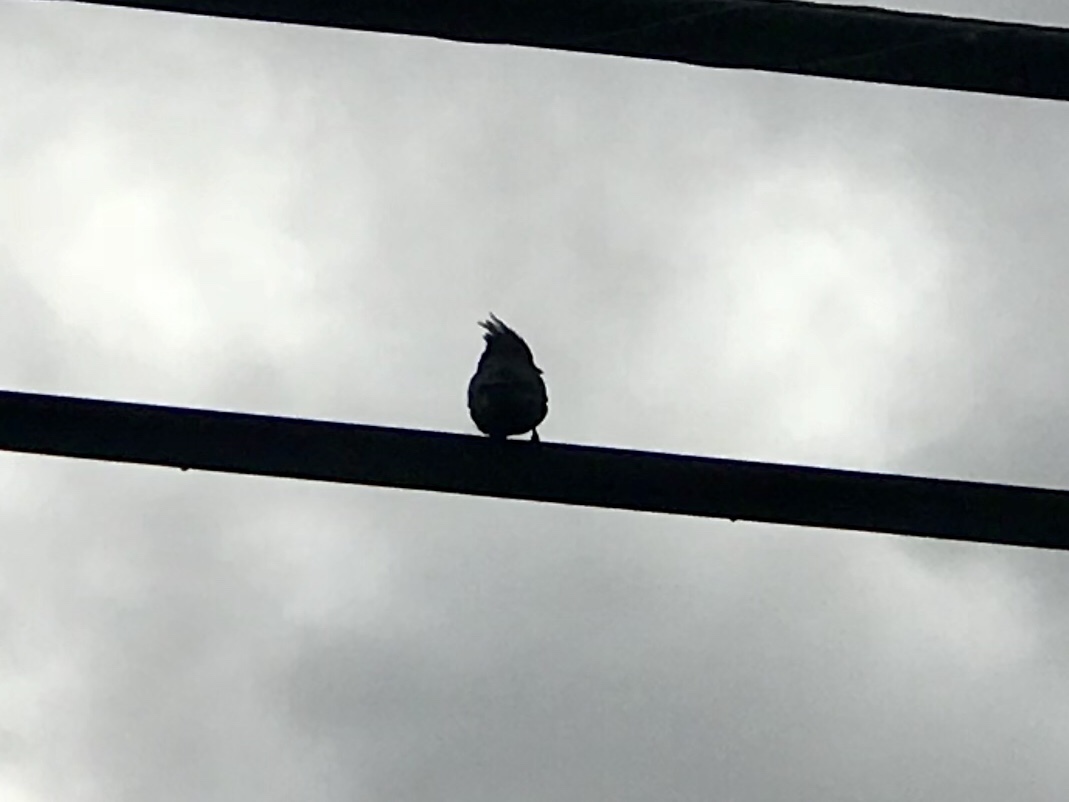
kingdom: Animalia
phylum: Chordata
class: Aves
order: Passeriformes
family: Ptilogonatidae
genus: Phainopepla
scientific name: Phainopepla nitens
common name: Phainopepla
